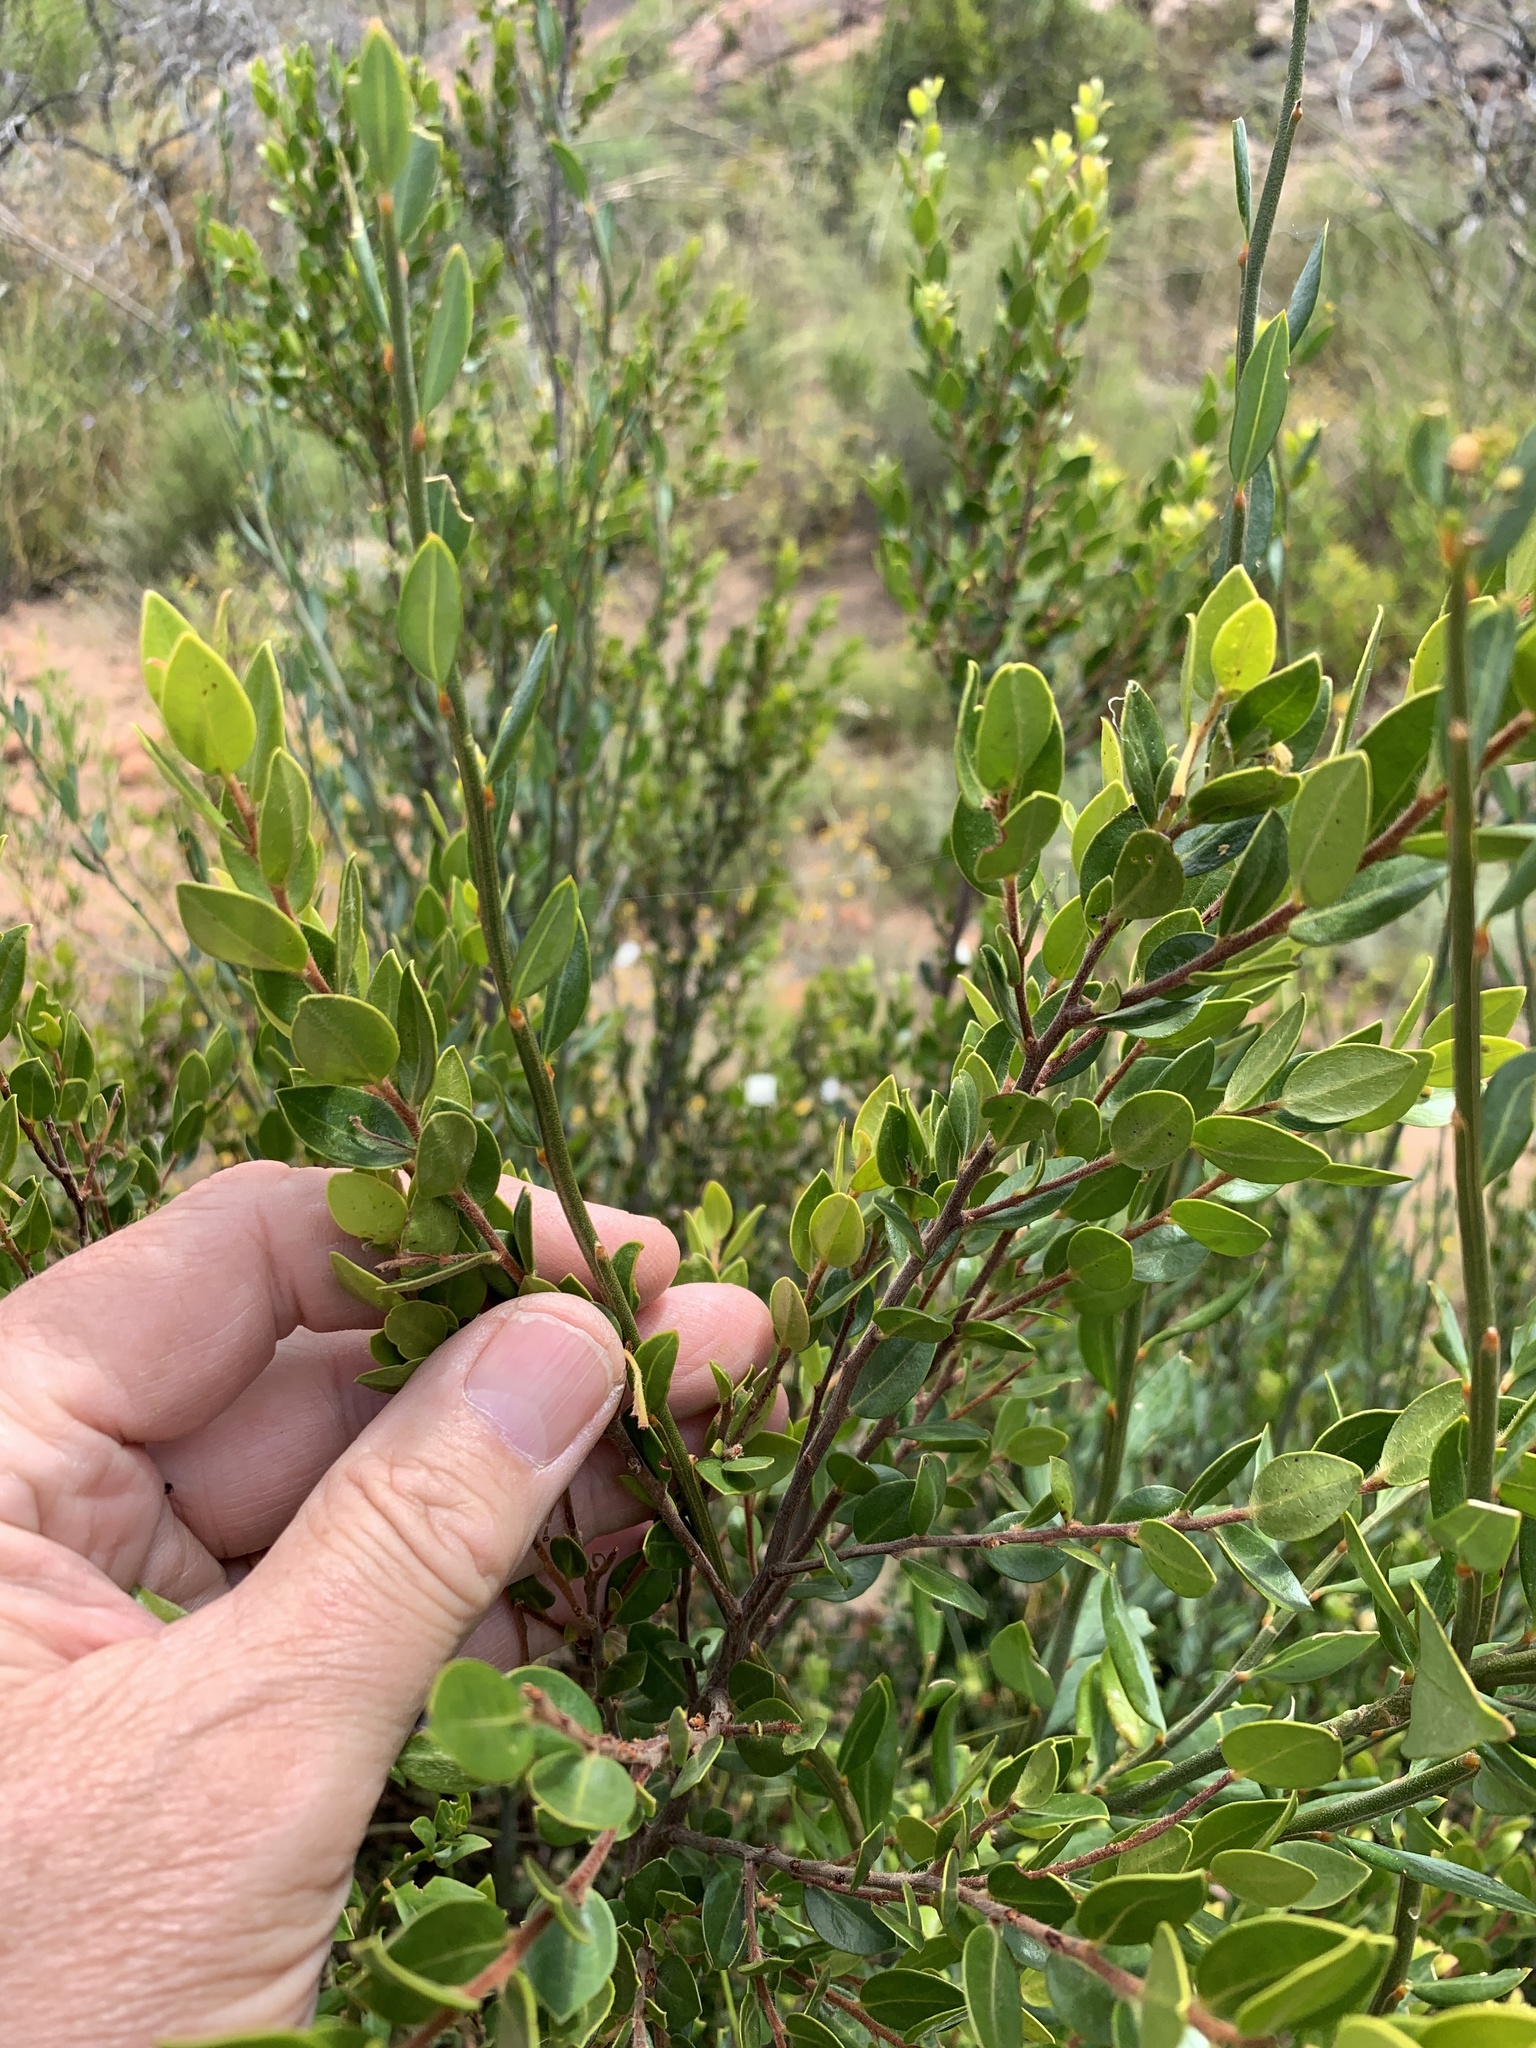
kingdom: Plantae
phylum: Tracheophyta
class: Magnoliopsida
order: Ericales
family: Ebenaceae
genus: Diospyros
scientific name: Diospyros glabra
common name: Fynbos star apple
